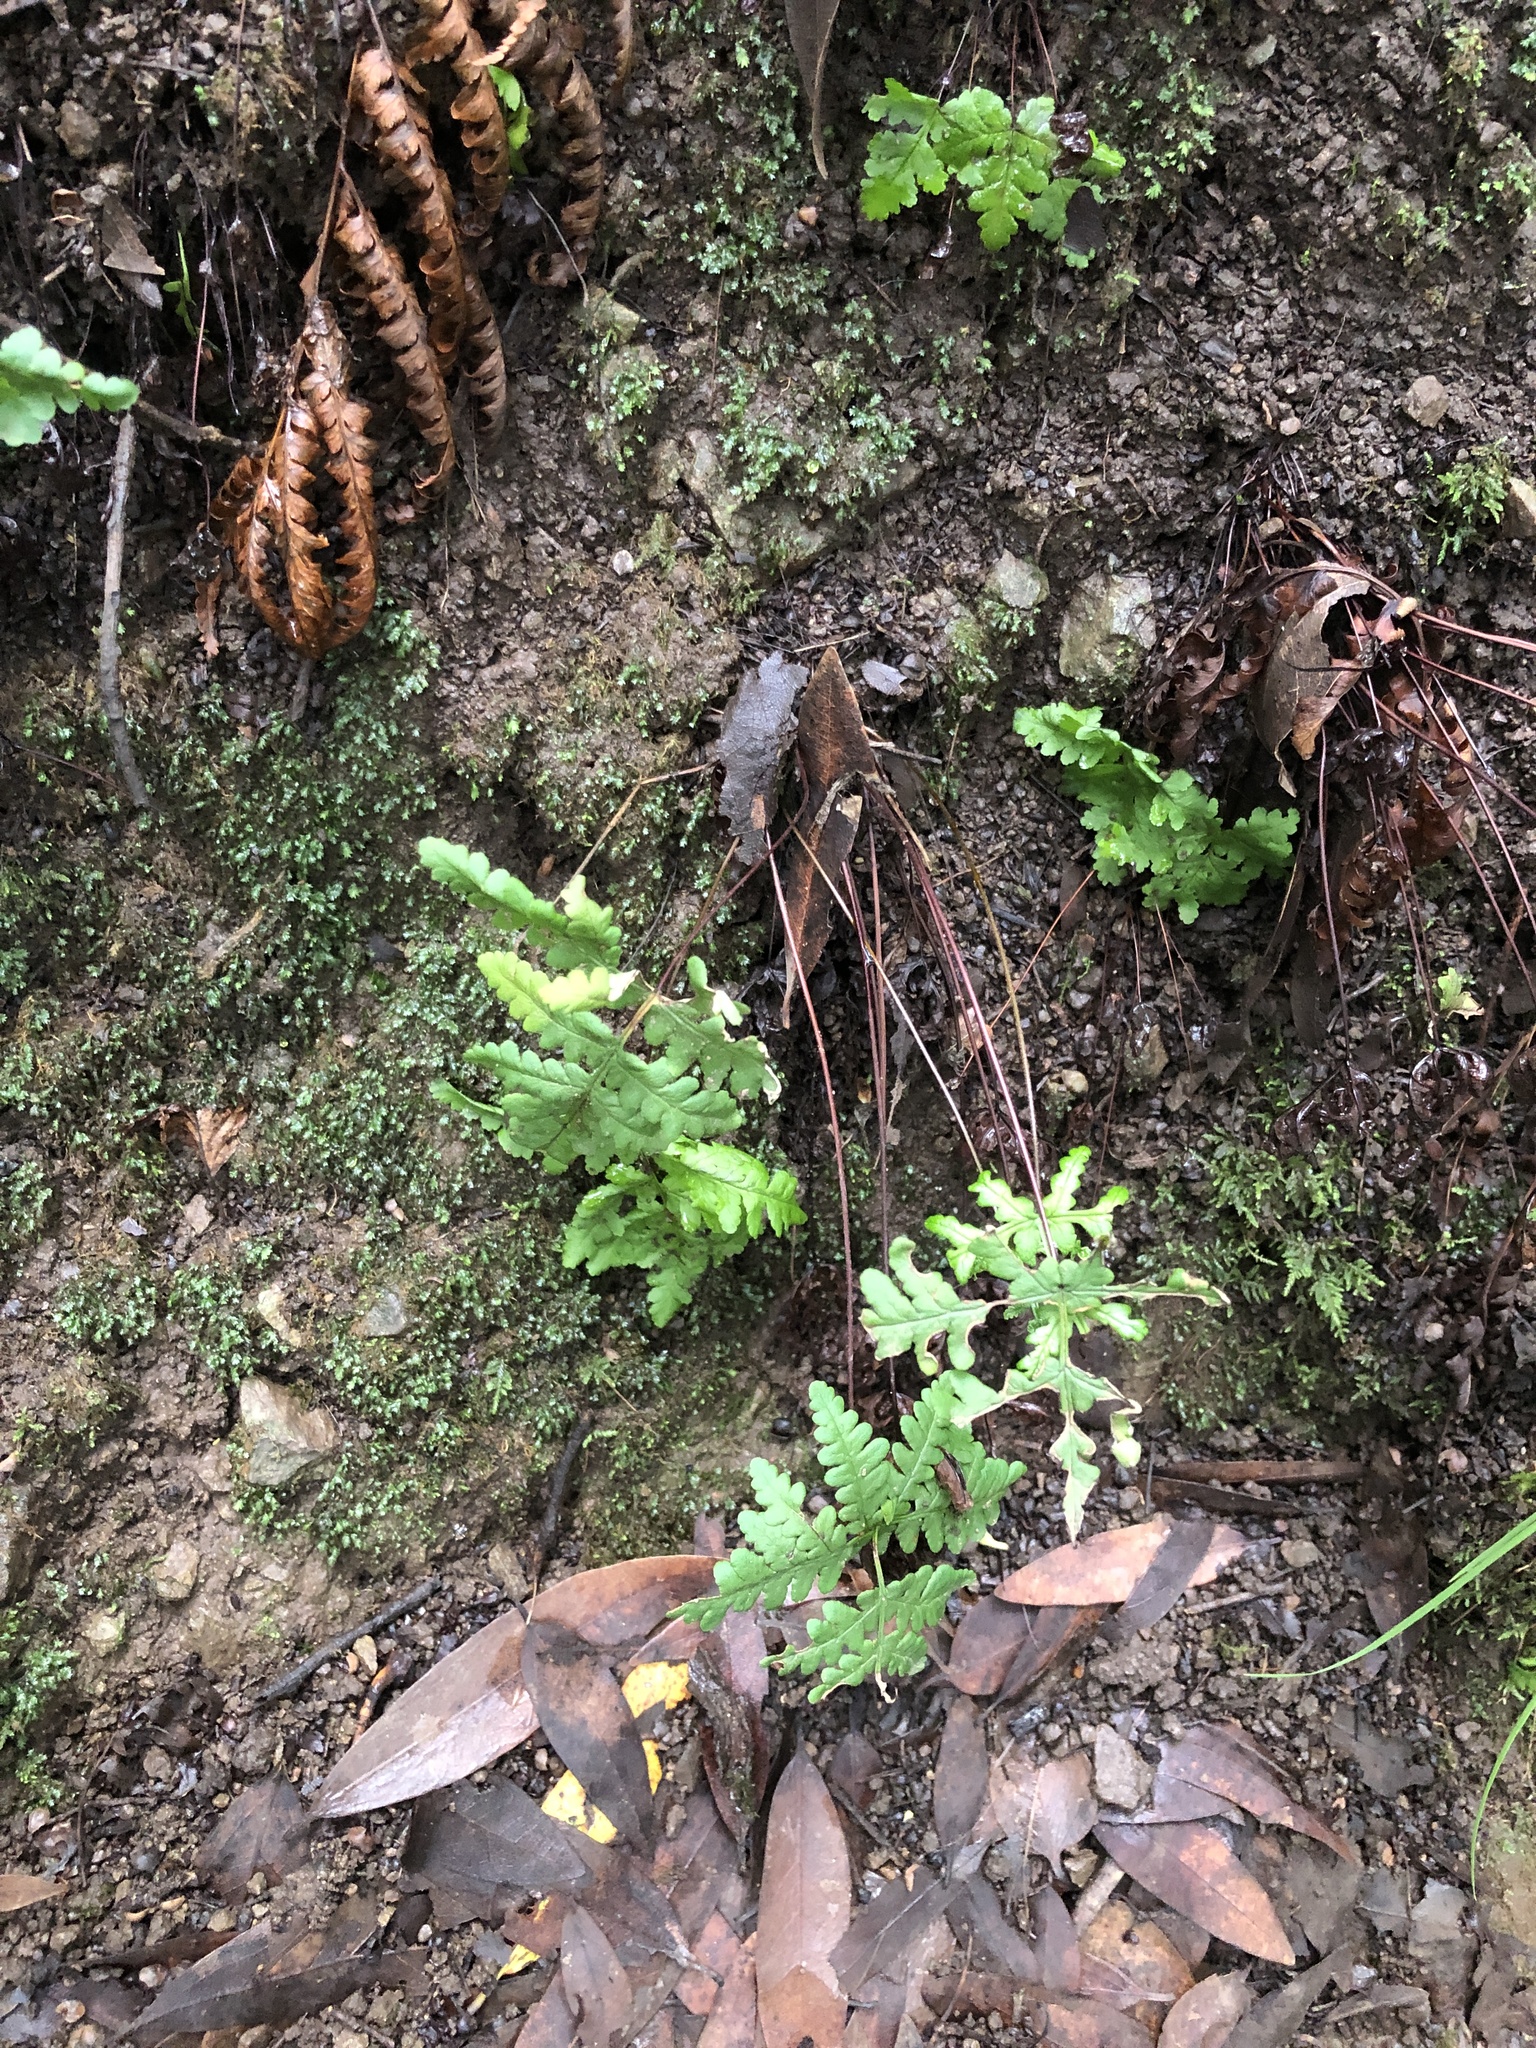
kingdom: Plantae
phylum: Tracheophyta
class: Polypodiopsida
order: Polypodiales
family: Pteridaceae
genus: Pentagramma
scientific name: Pentagramma triangularis
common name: Gold fern
